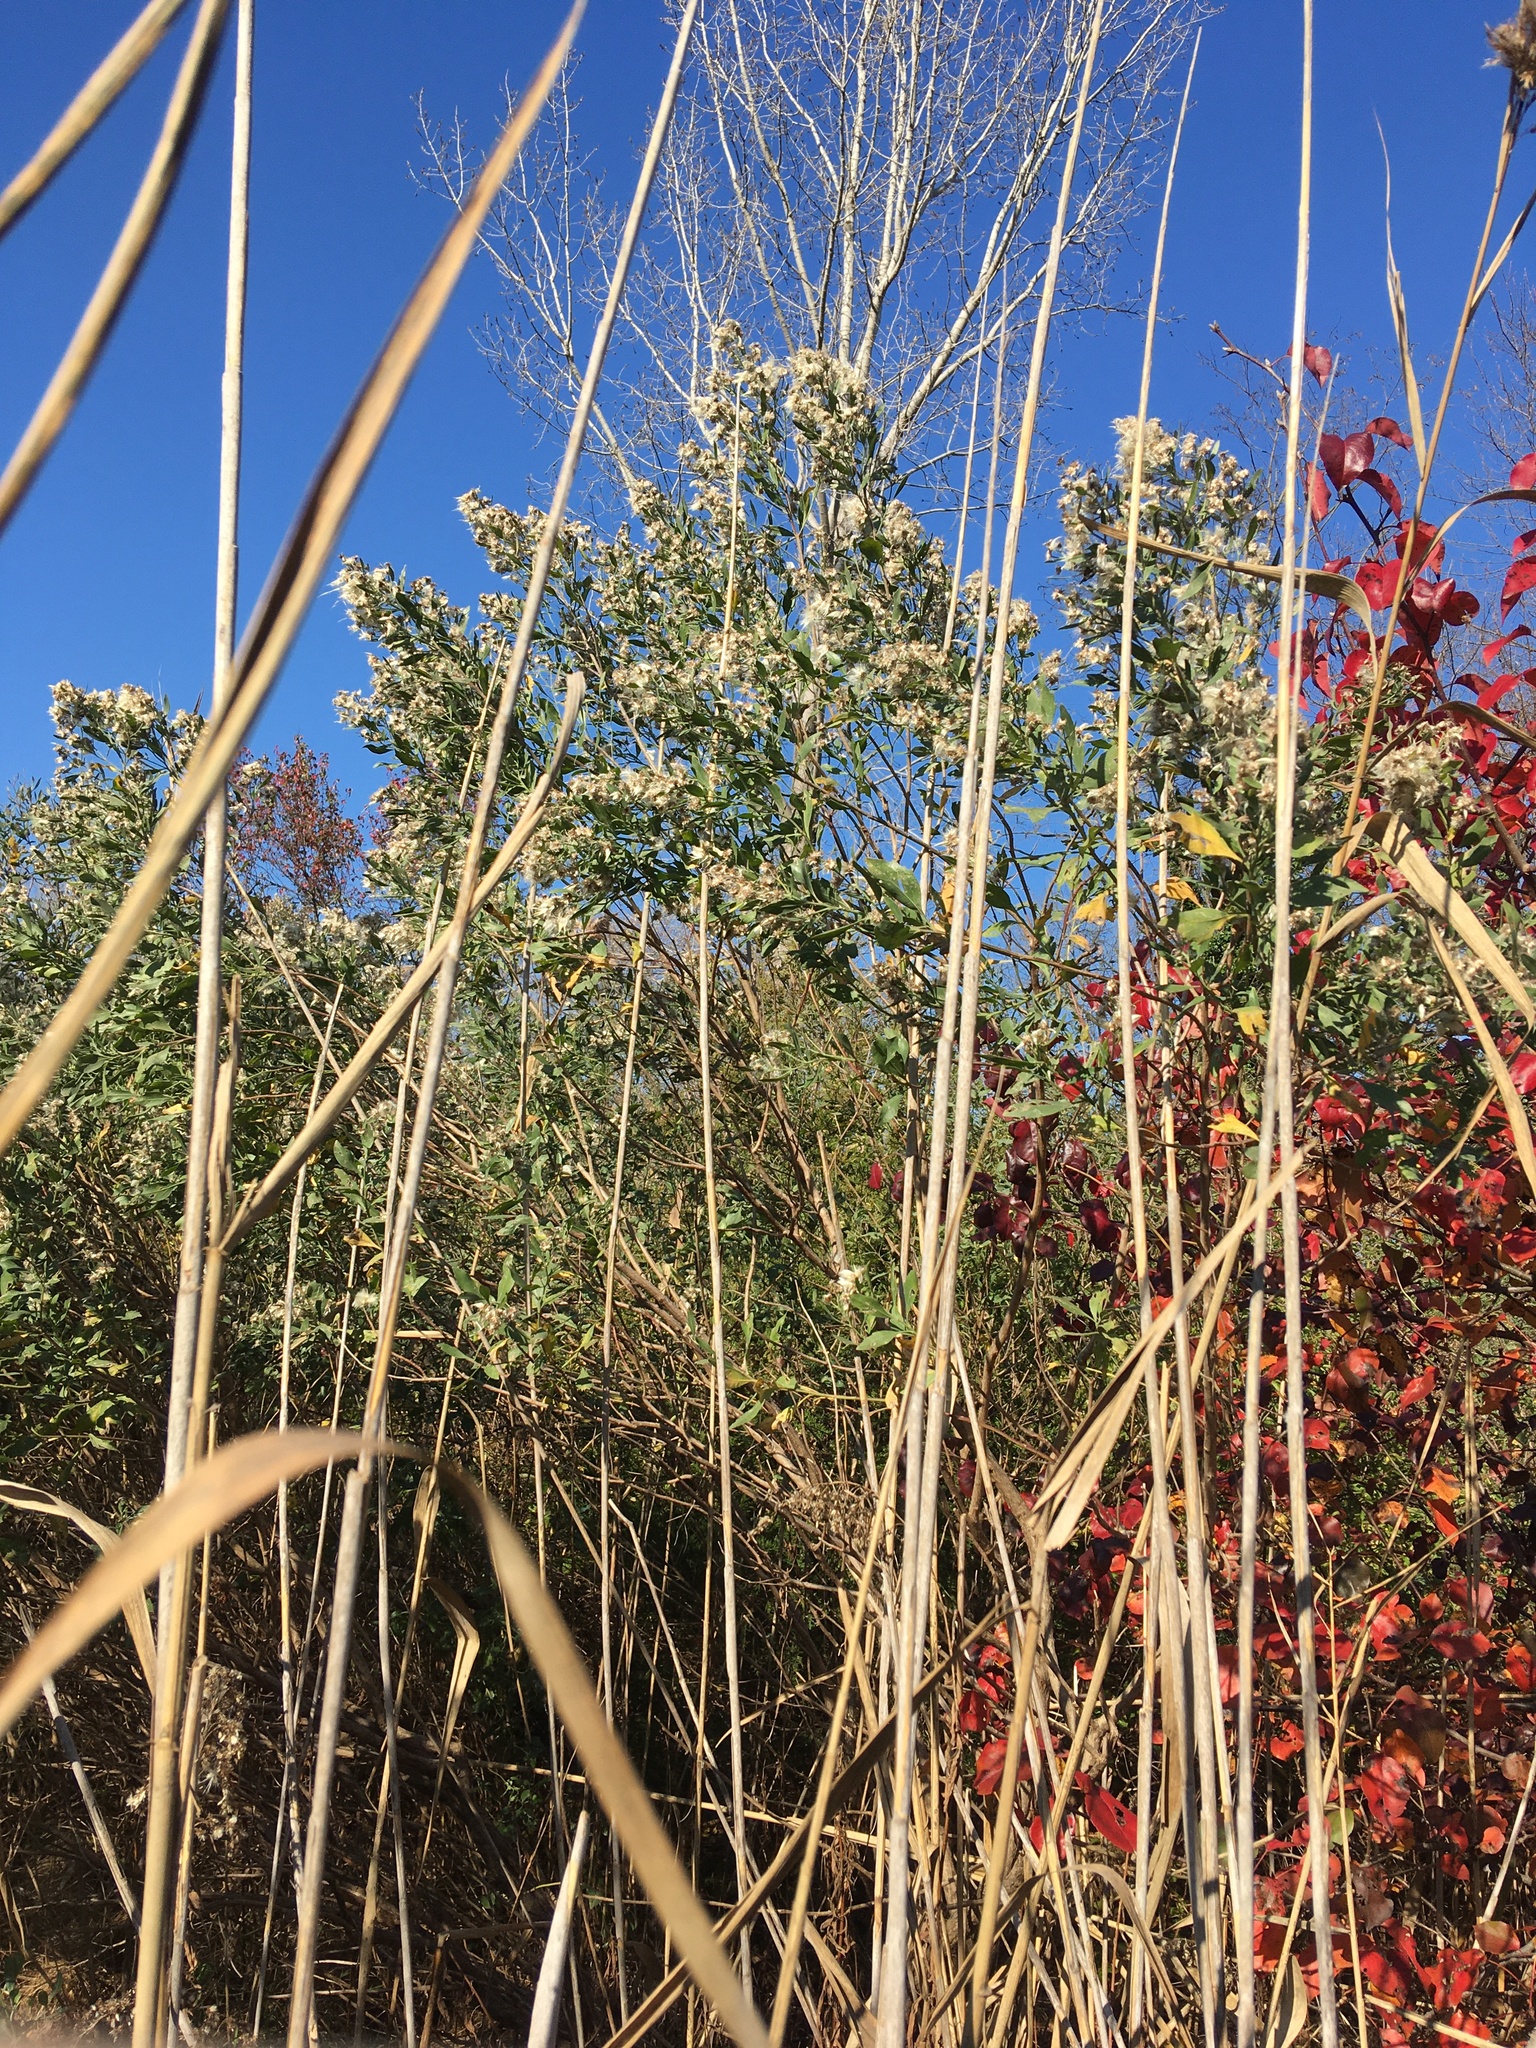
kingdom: Plantae
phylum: Tracheophyta
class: Magnoliopsida
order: Asterales
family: Asteraceae
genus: Baccharis
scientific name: Baccharis halimifolia
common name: Eastern baccharis
